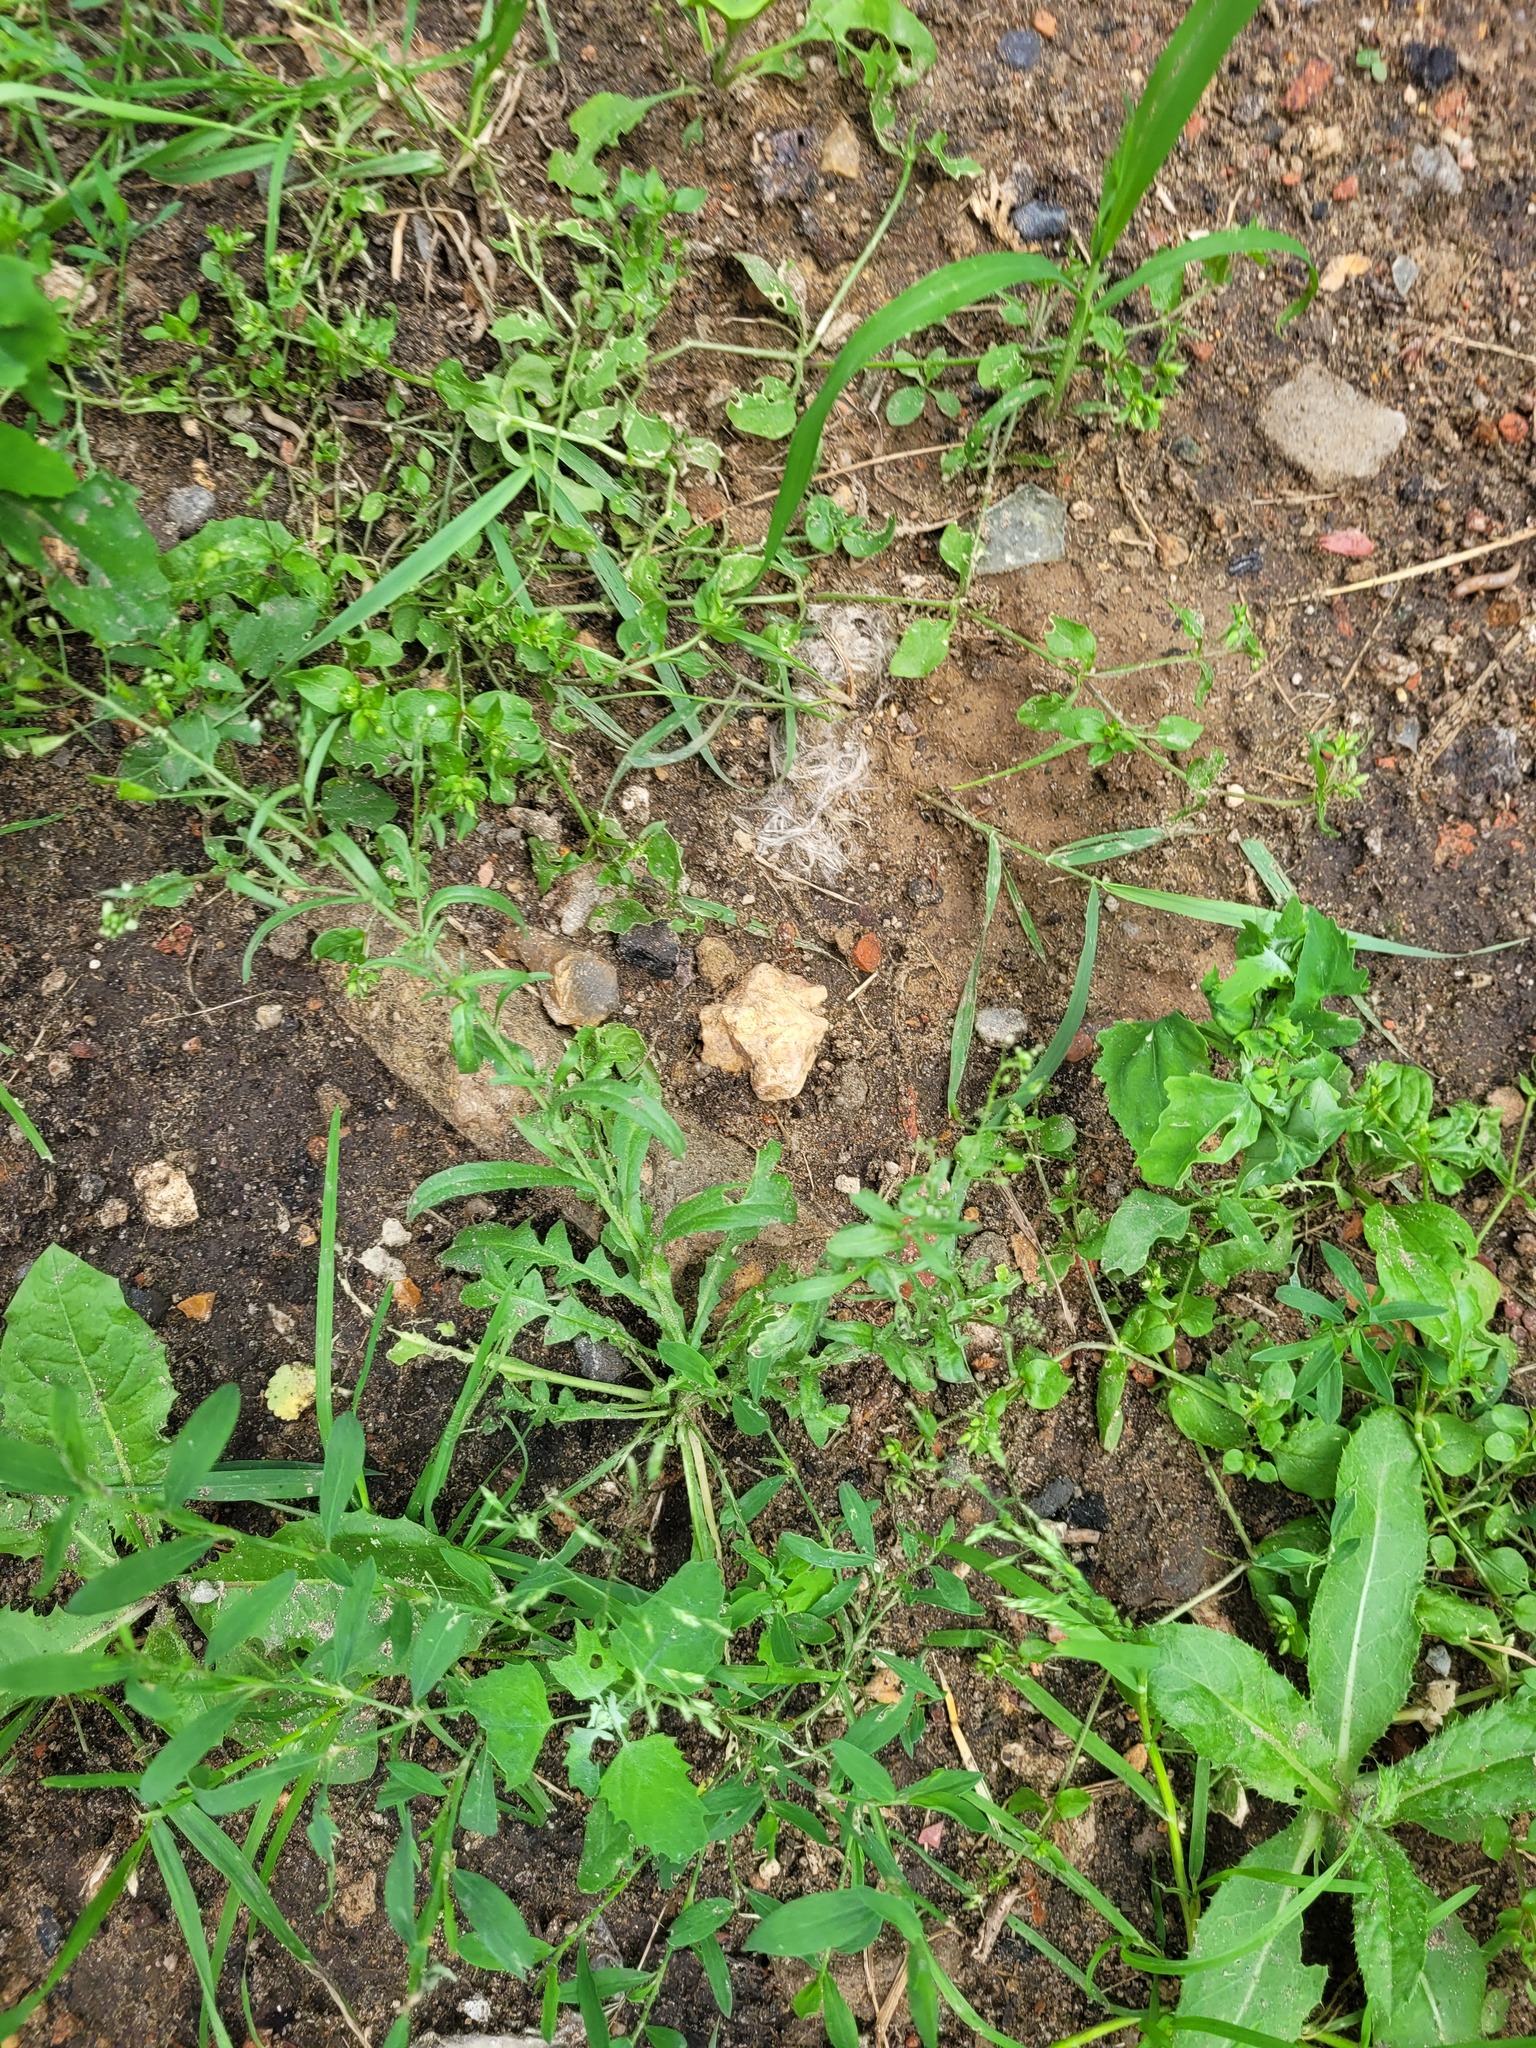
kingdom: Plantae
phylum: Tracheophyta
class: Magnoliopsida
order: Brassicales
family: Brassicaceae
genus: Capsella
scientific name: Capsella bursa-pastoris
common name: Shepherd's purse
